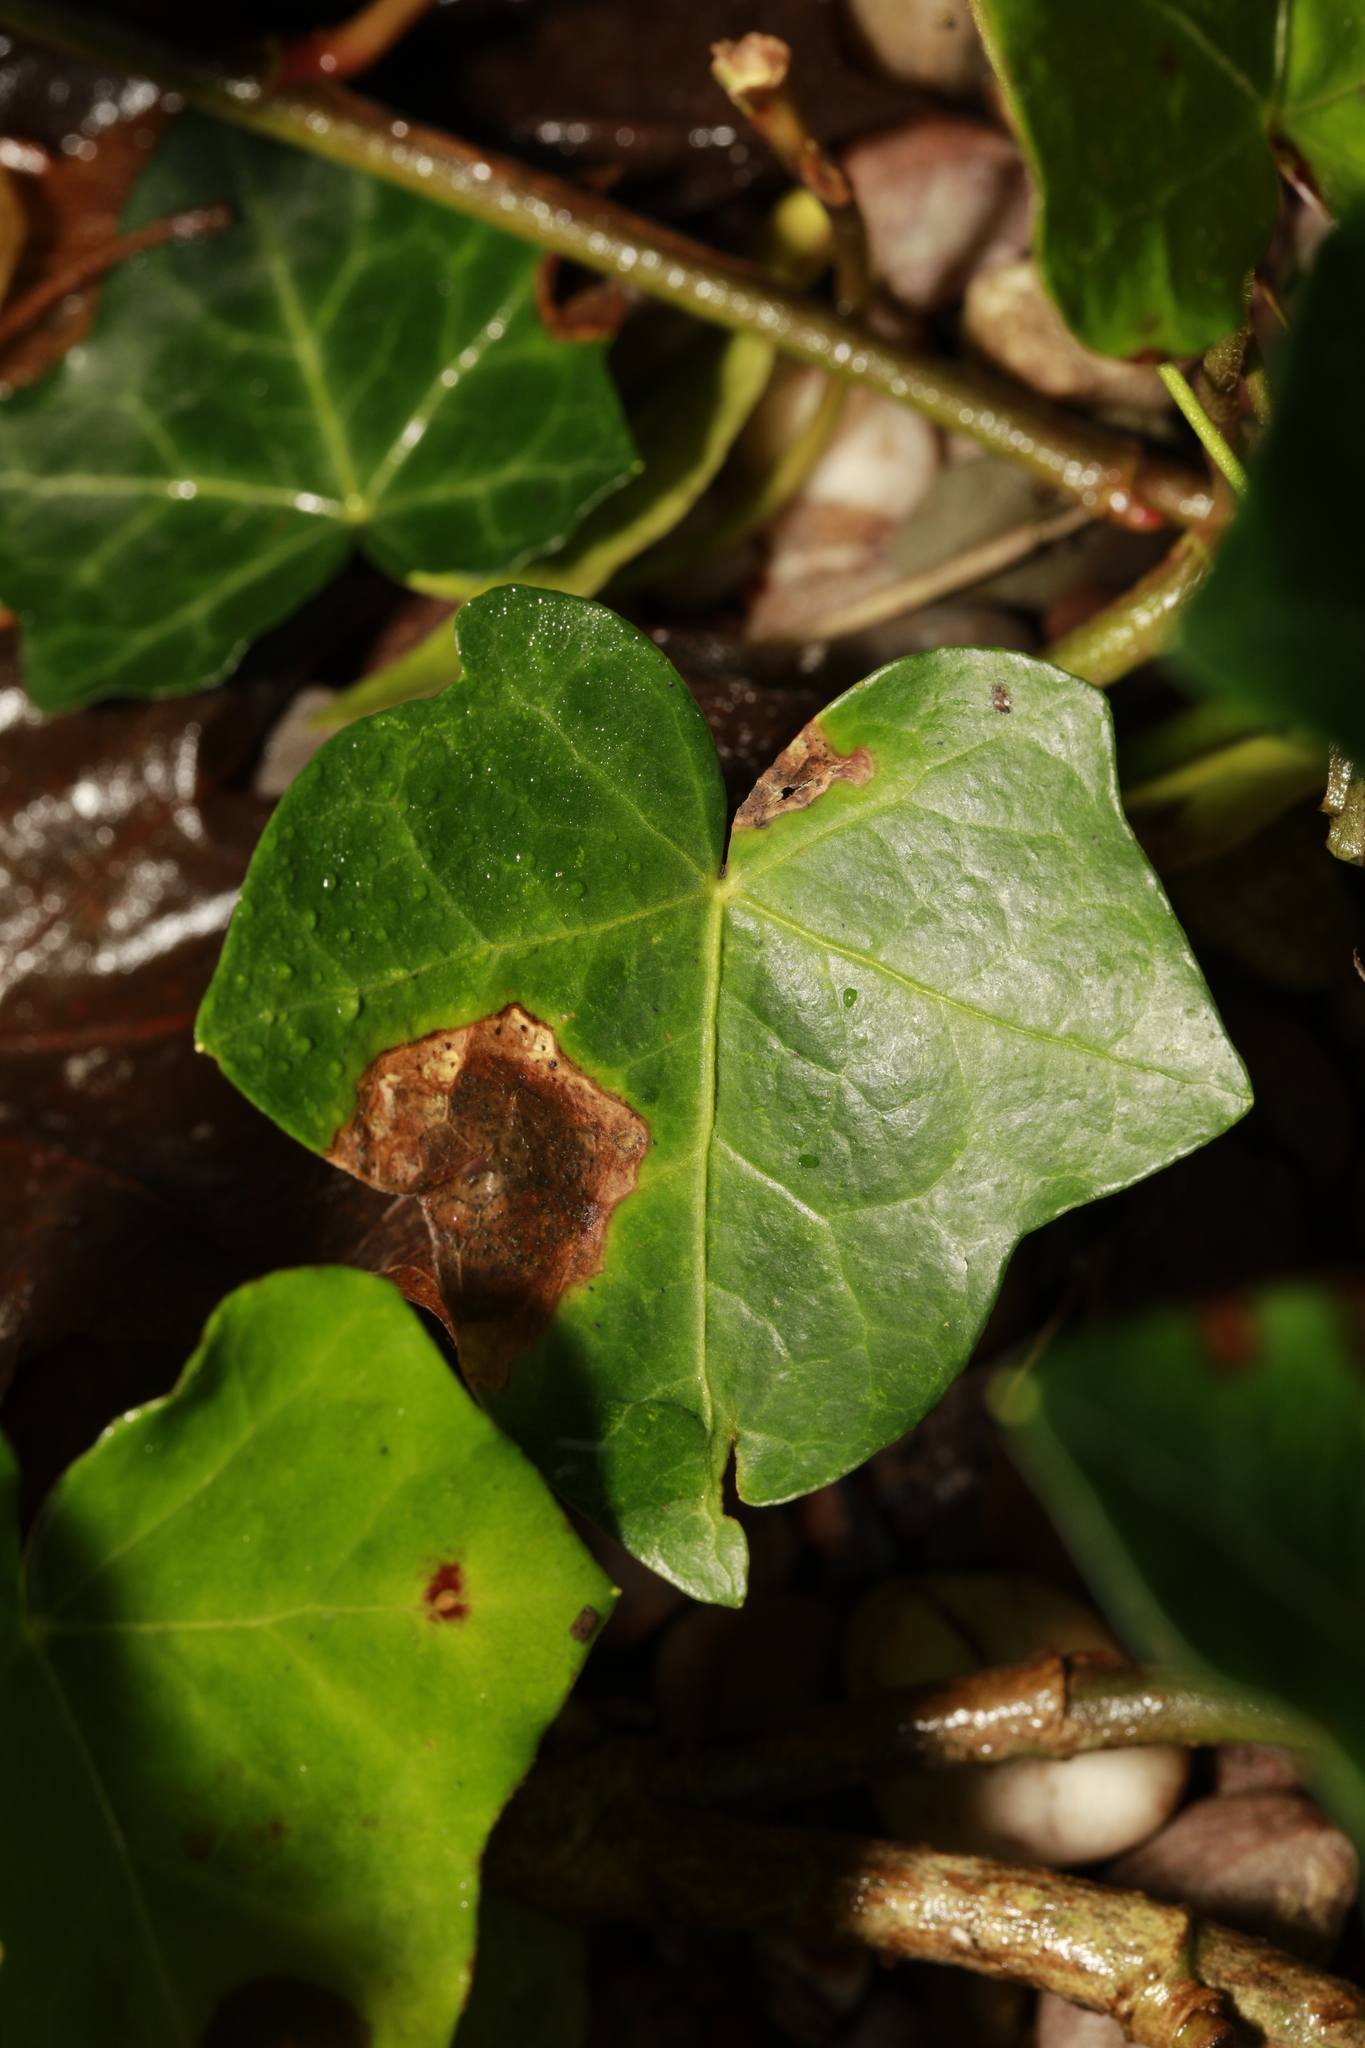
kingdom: Fungi
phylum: Ascomycota
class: Dothideomycetes
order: Pleosporales
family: Didymellaceae
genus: Boeremia
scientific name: Boeremia hedericola
